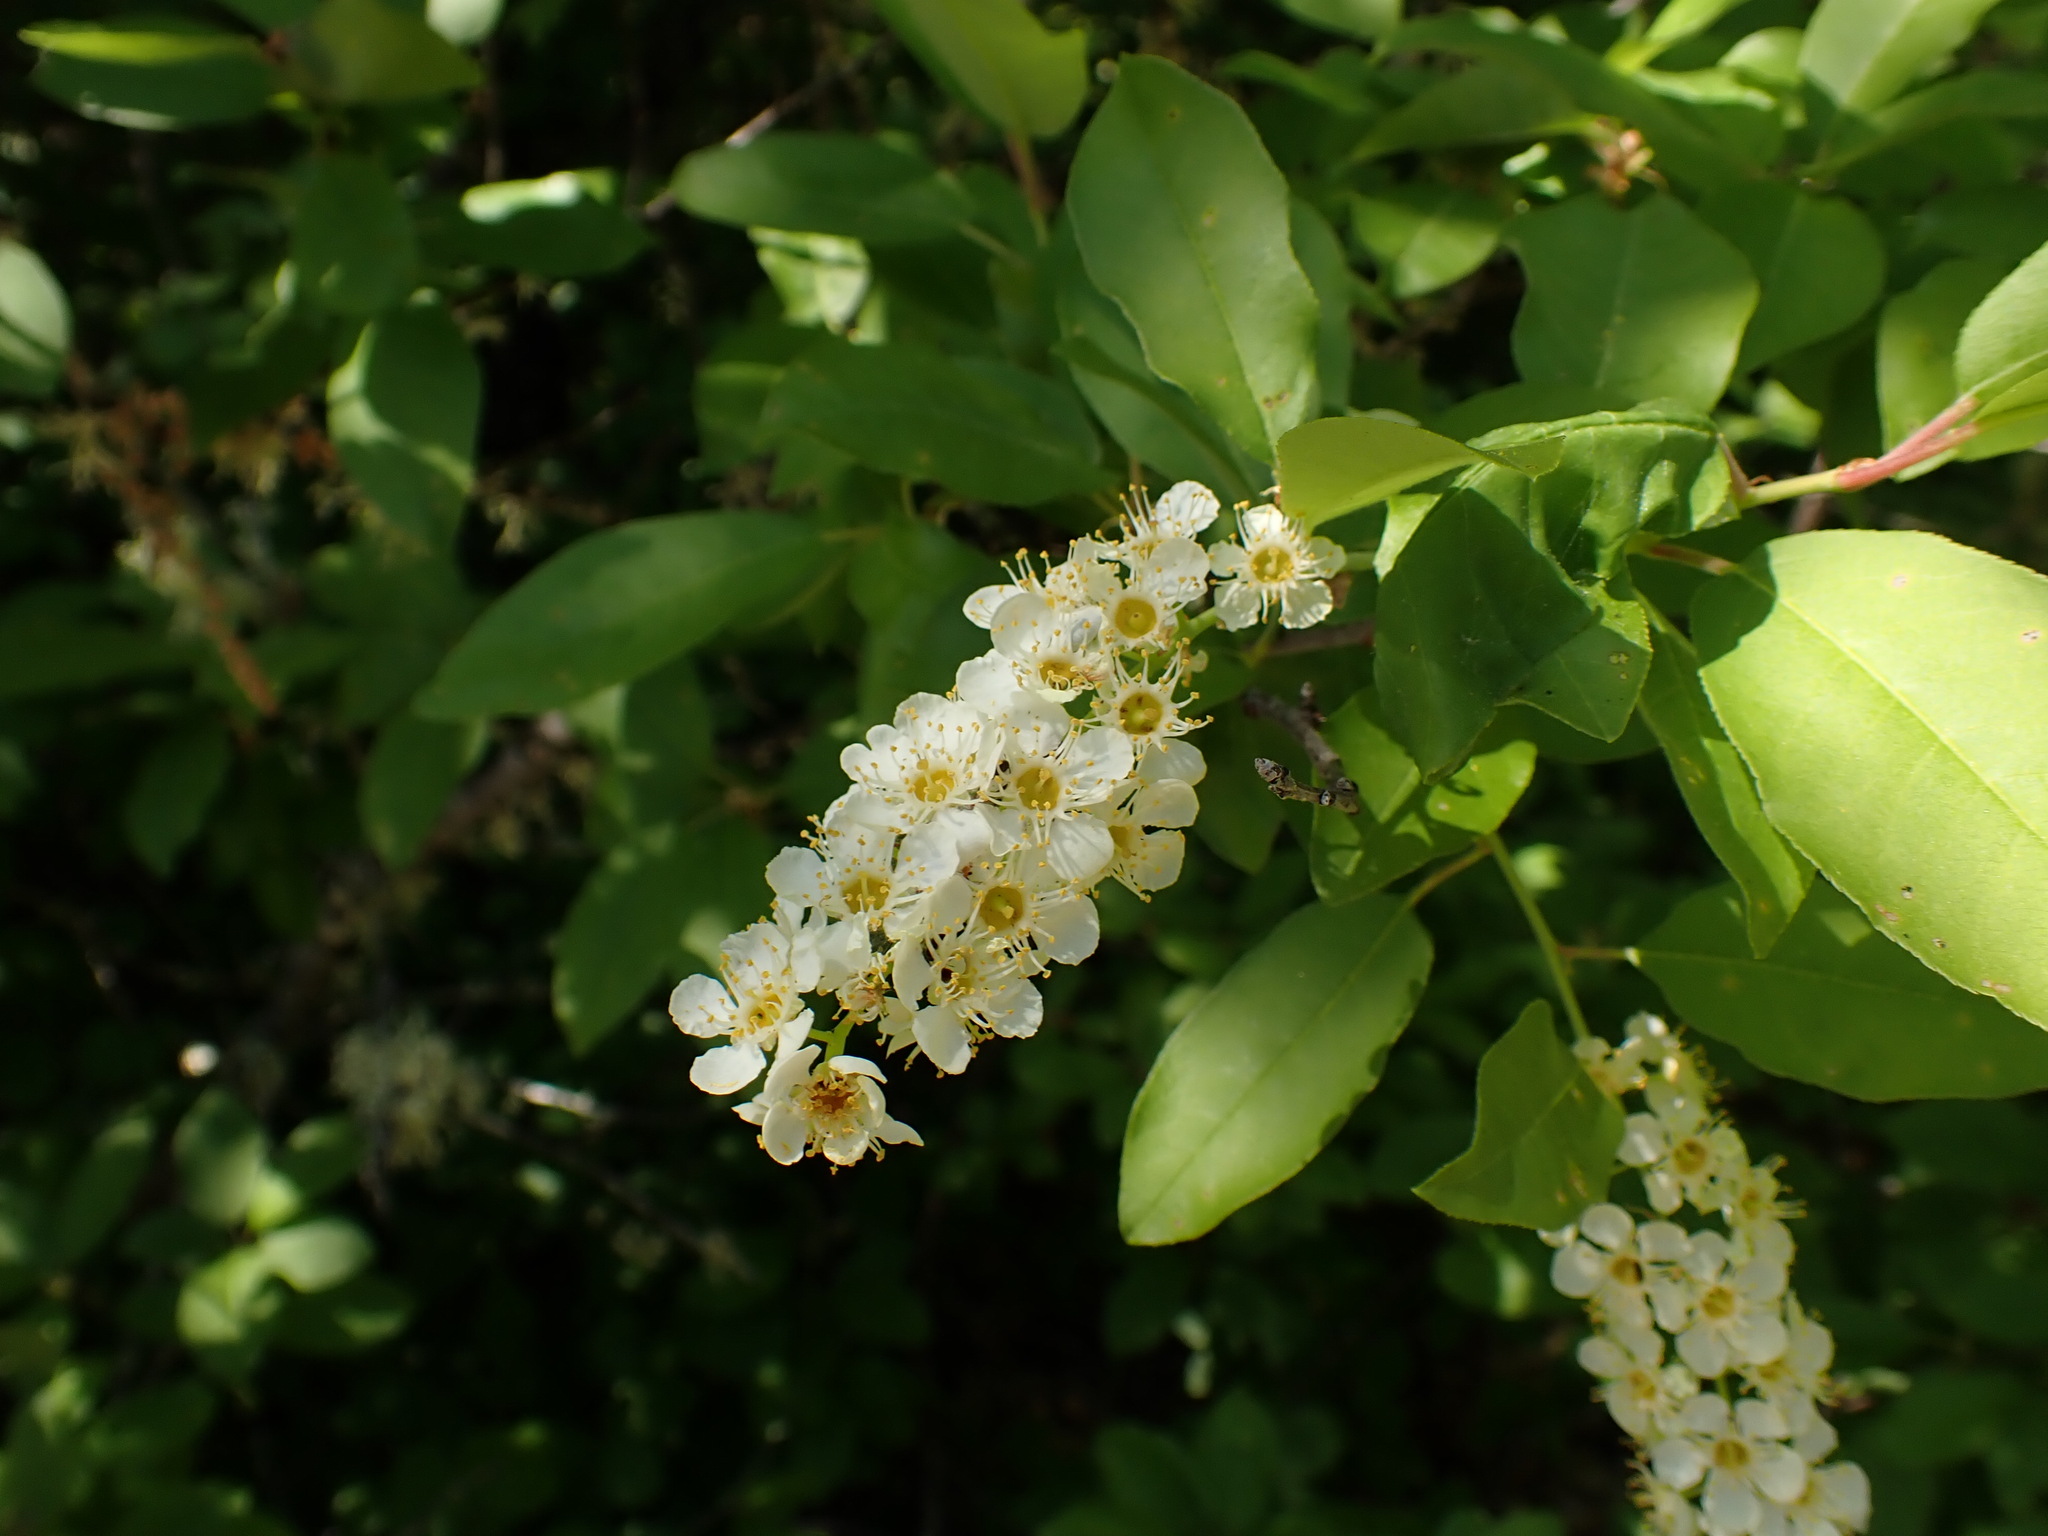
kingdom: Plantae
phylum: Tracheophyta
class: Magnoliopsida
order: Rosales
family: Rosaceae
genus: Prunus
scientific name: Prunus virginiana
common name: Chokecherry
